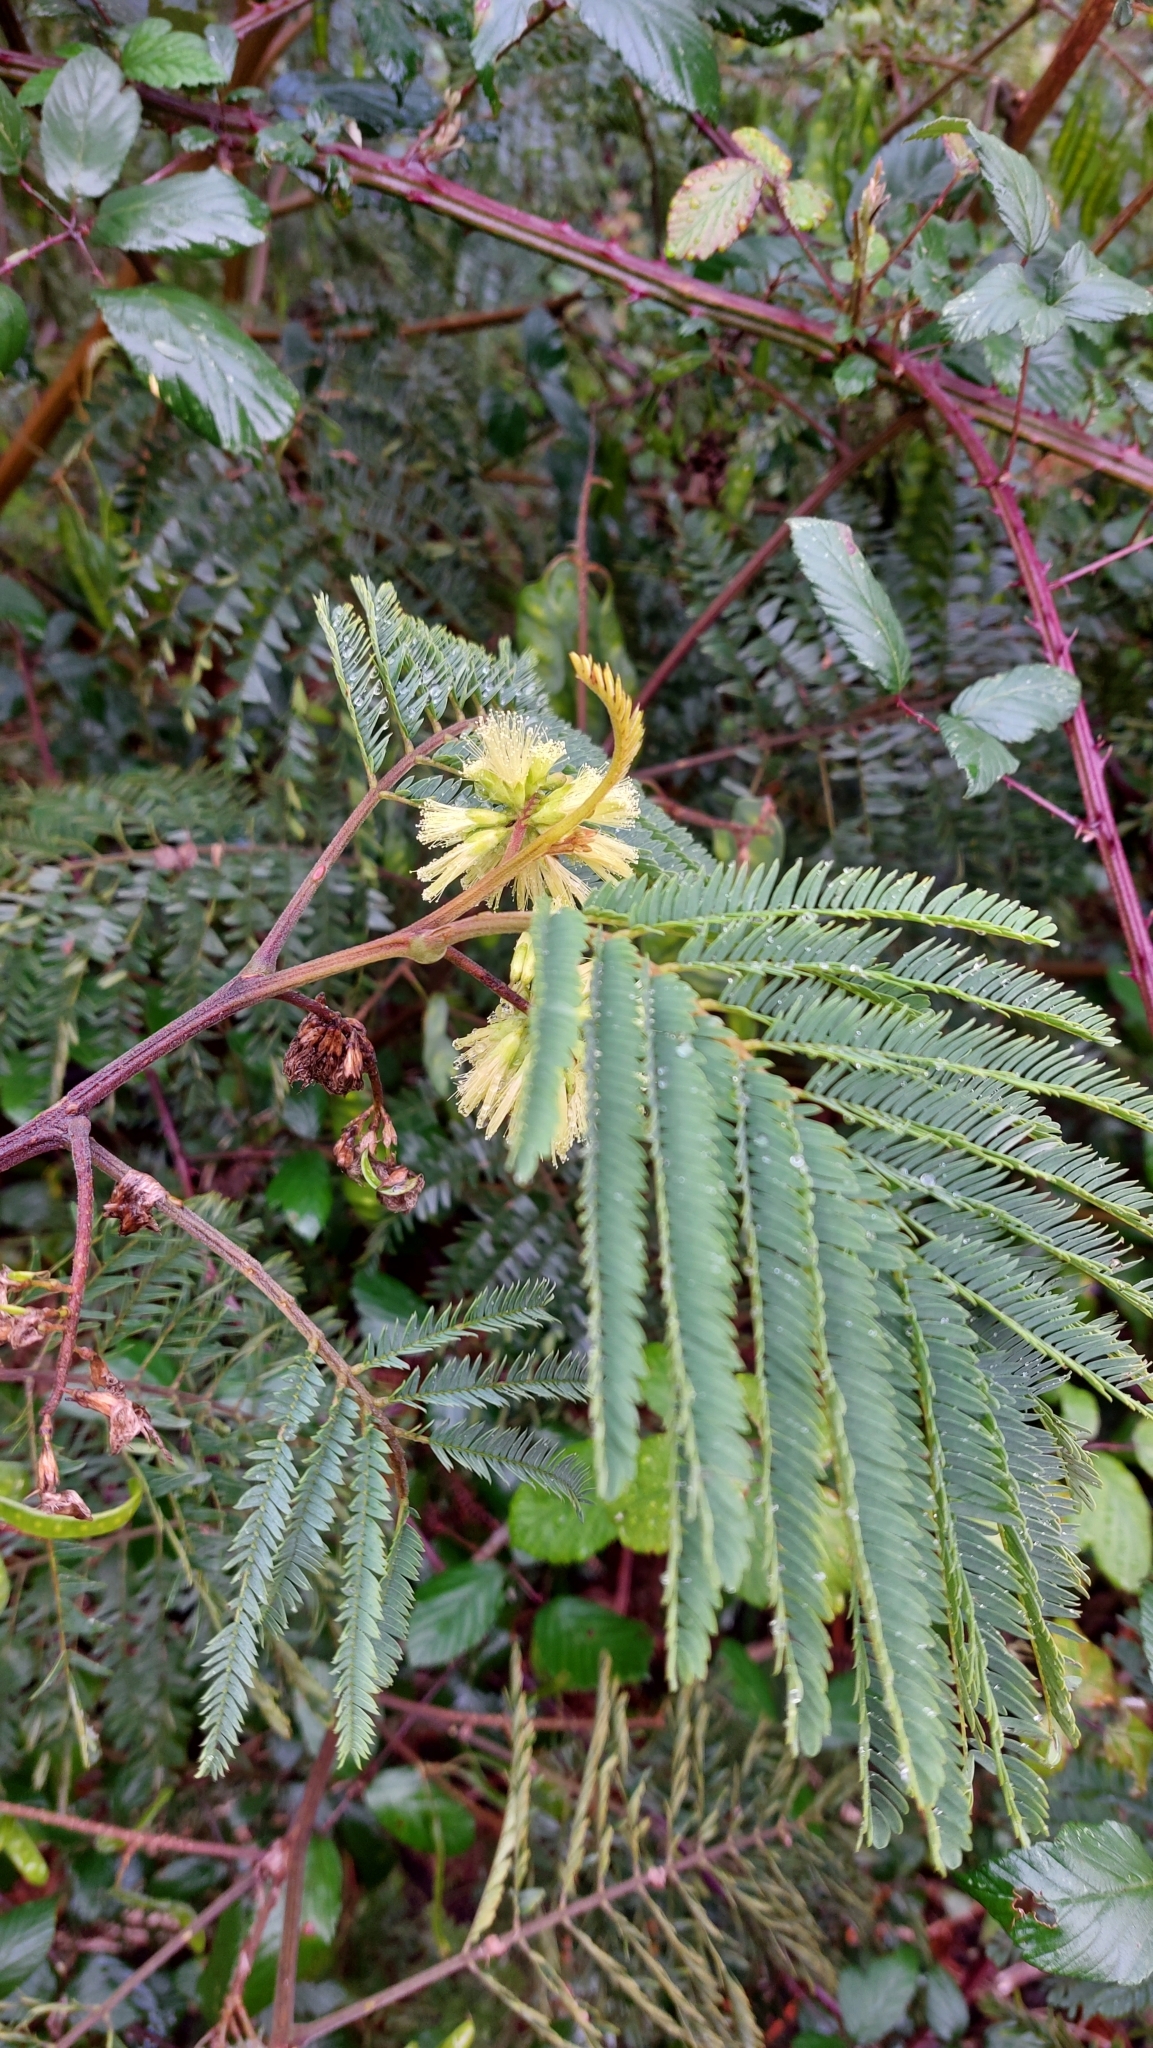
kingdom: Plantae
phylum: Tracheophyta
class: Magnoliopsida
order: Fabales
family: Fabaceae
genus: Acacia
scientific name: Acacia mearnsii
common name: Black wattle
